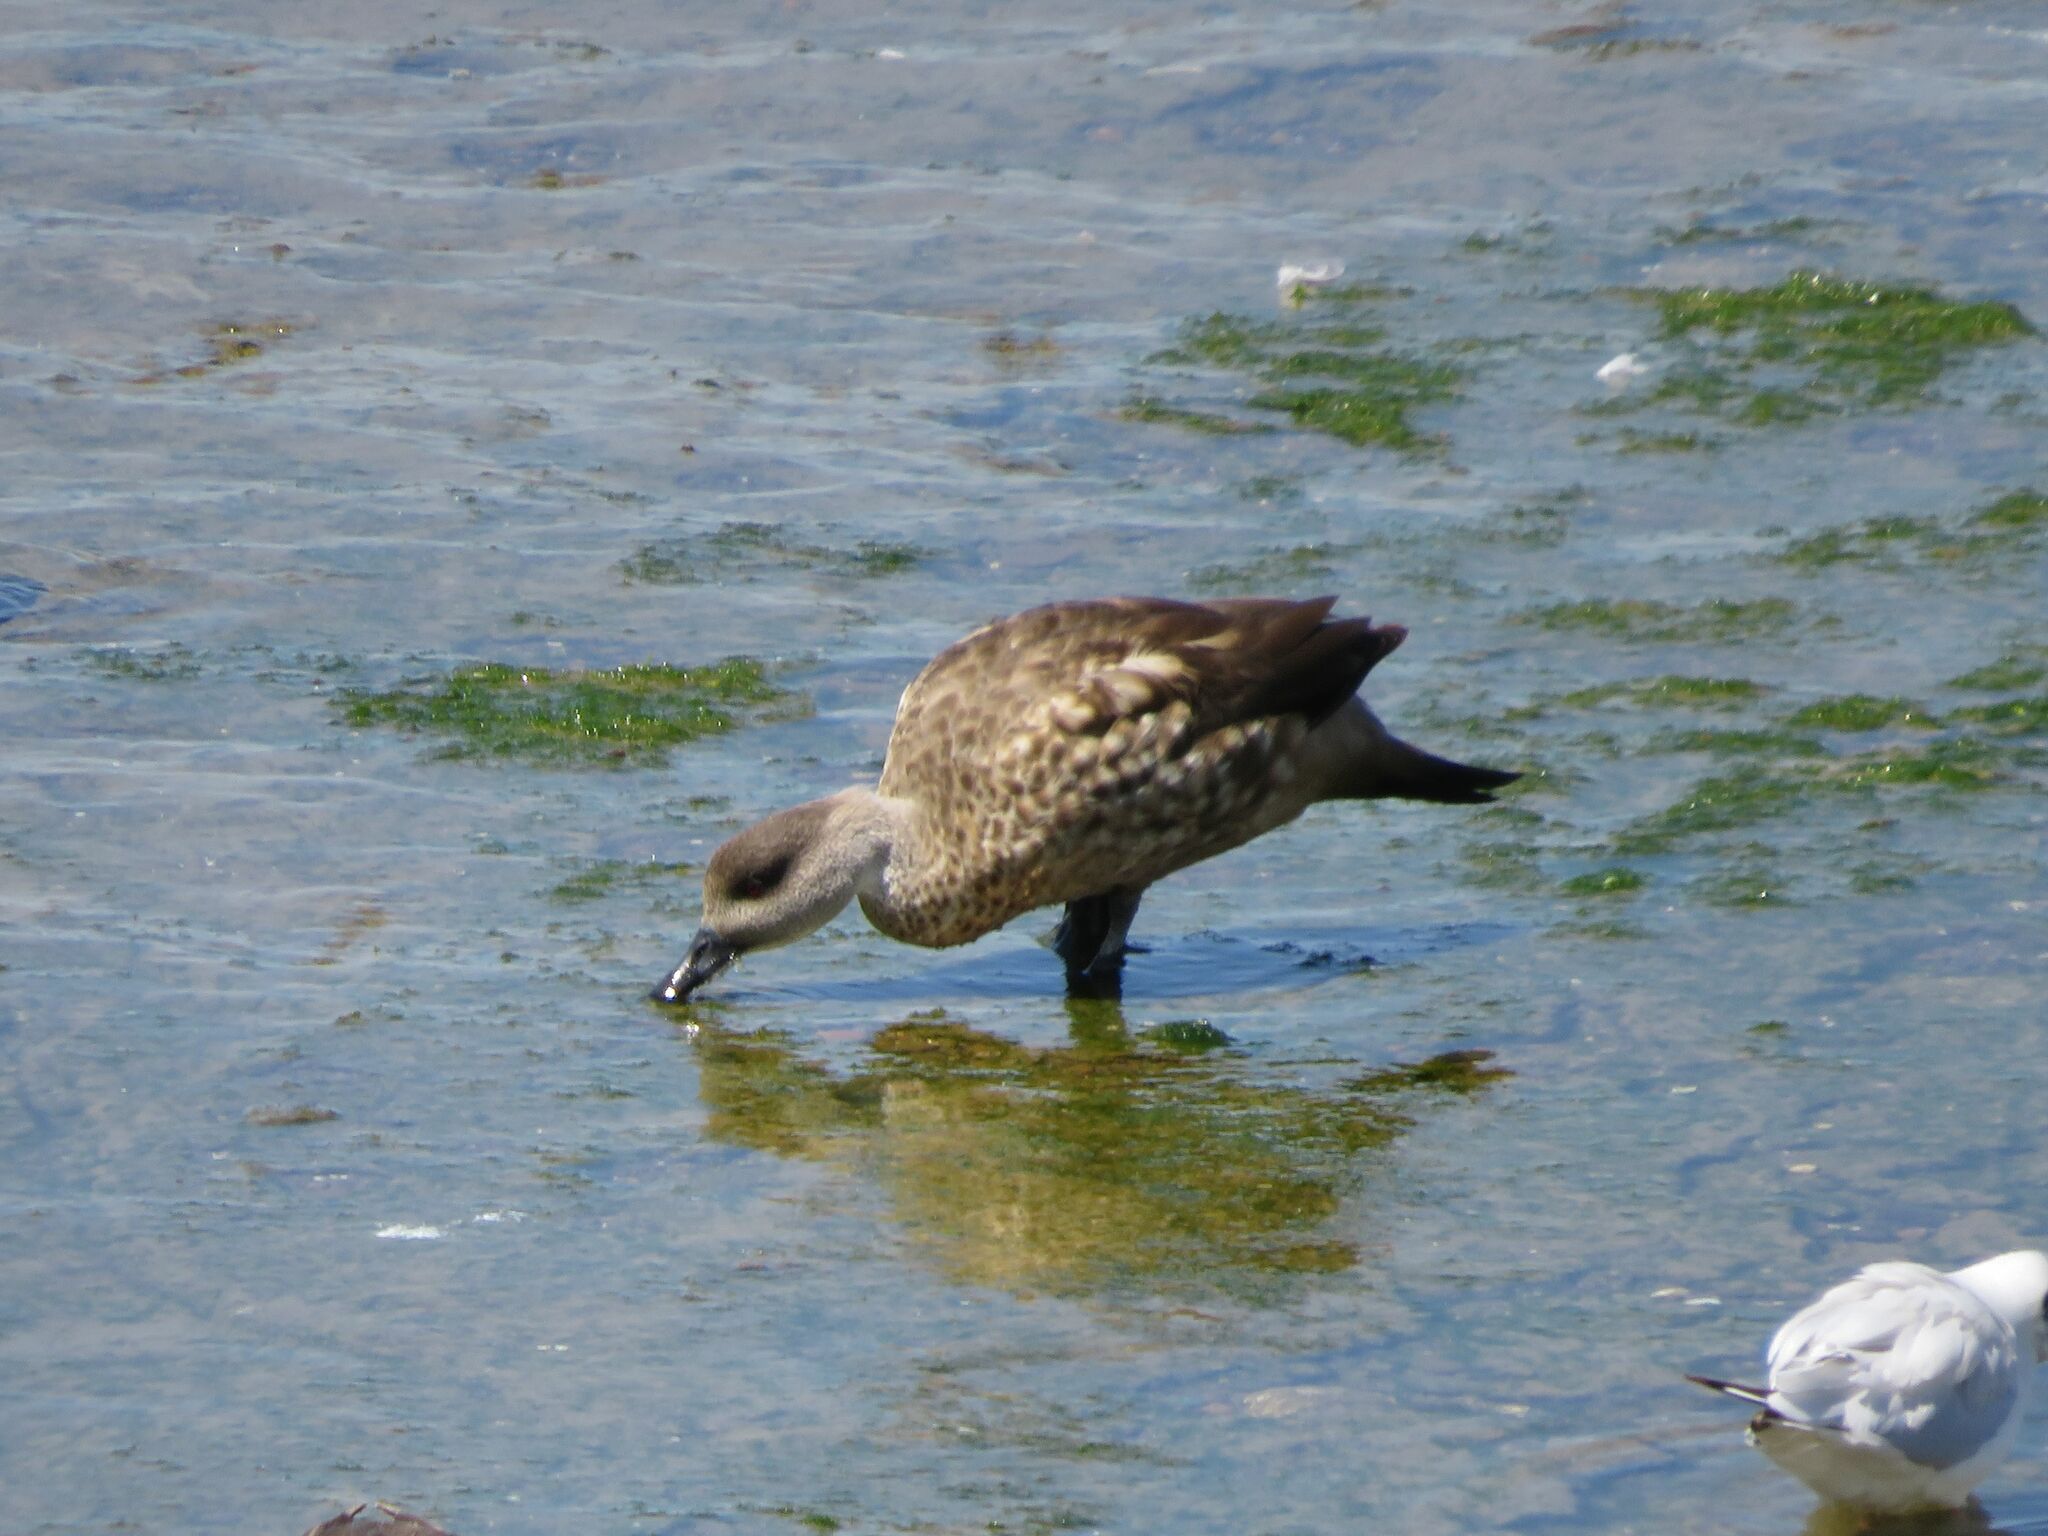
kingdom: Animalia
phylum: Chordata
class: Aves
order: Anseriformes
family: Anatidae
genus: Lophonetta
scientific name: Lophonetta specularioides
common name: Crested duck
